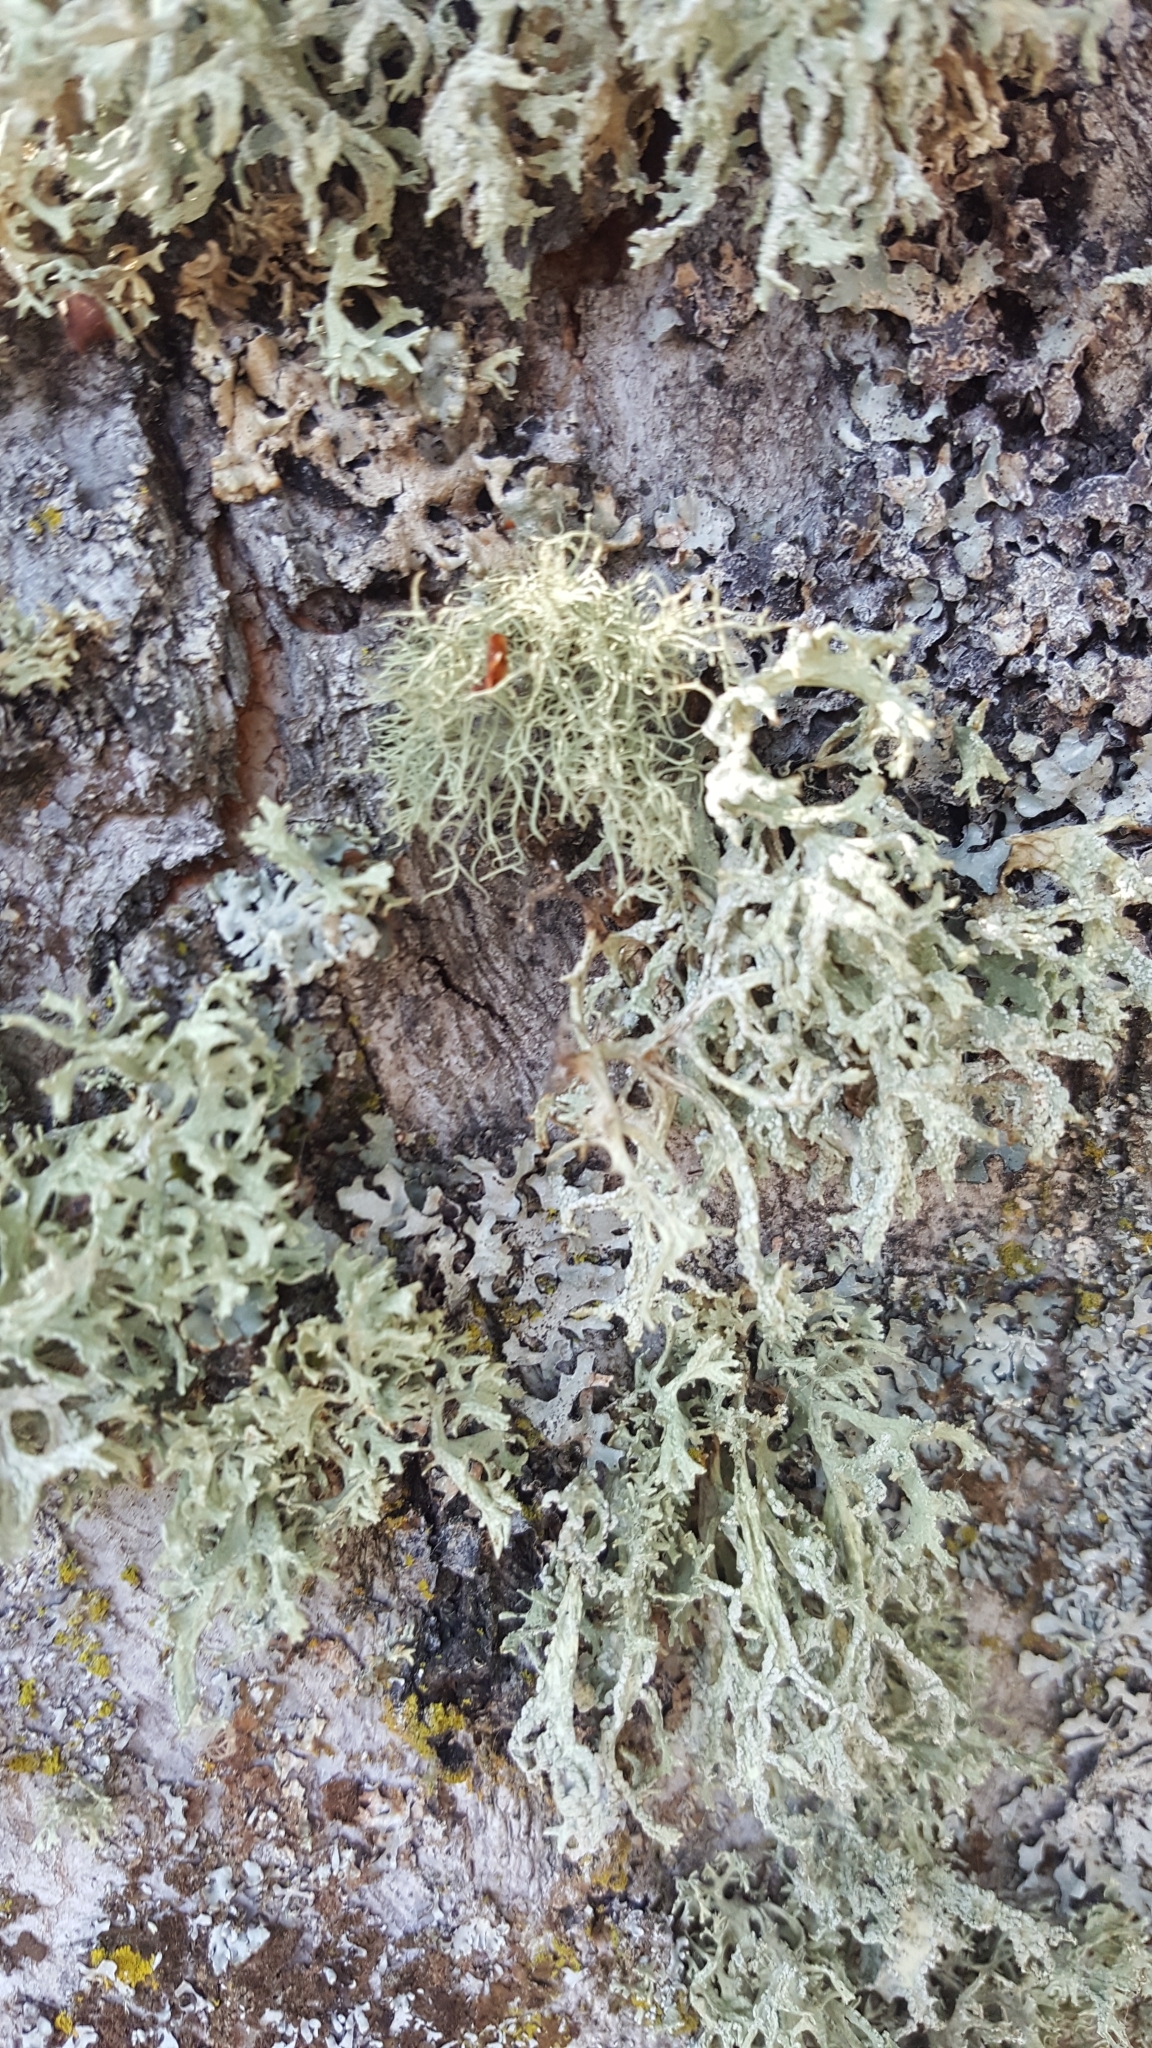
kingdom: Fungi
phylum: Ascomycota
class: Lecanoromycetes
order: Lecanorales
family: Parmeliaceae
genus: Evernia
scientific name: Evernia prunastri
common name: Oak moss
